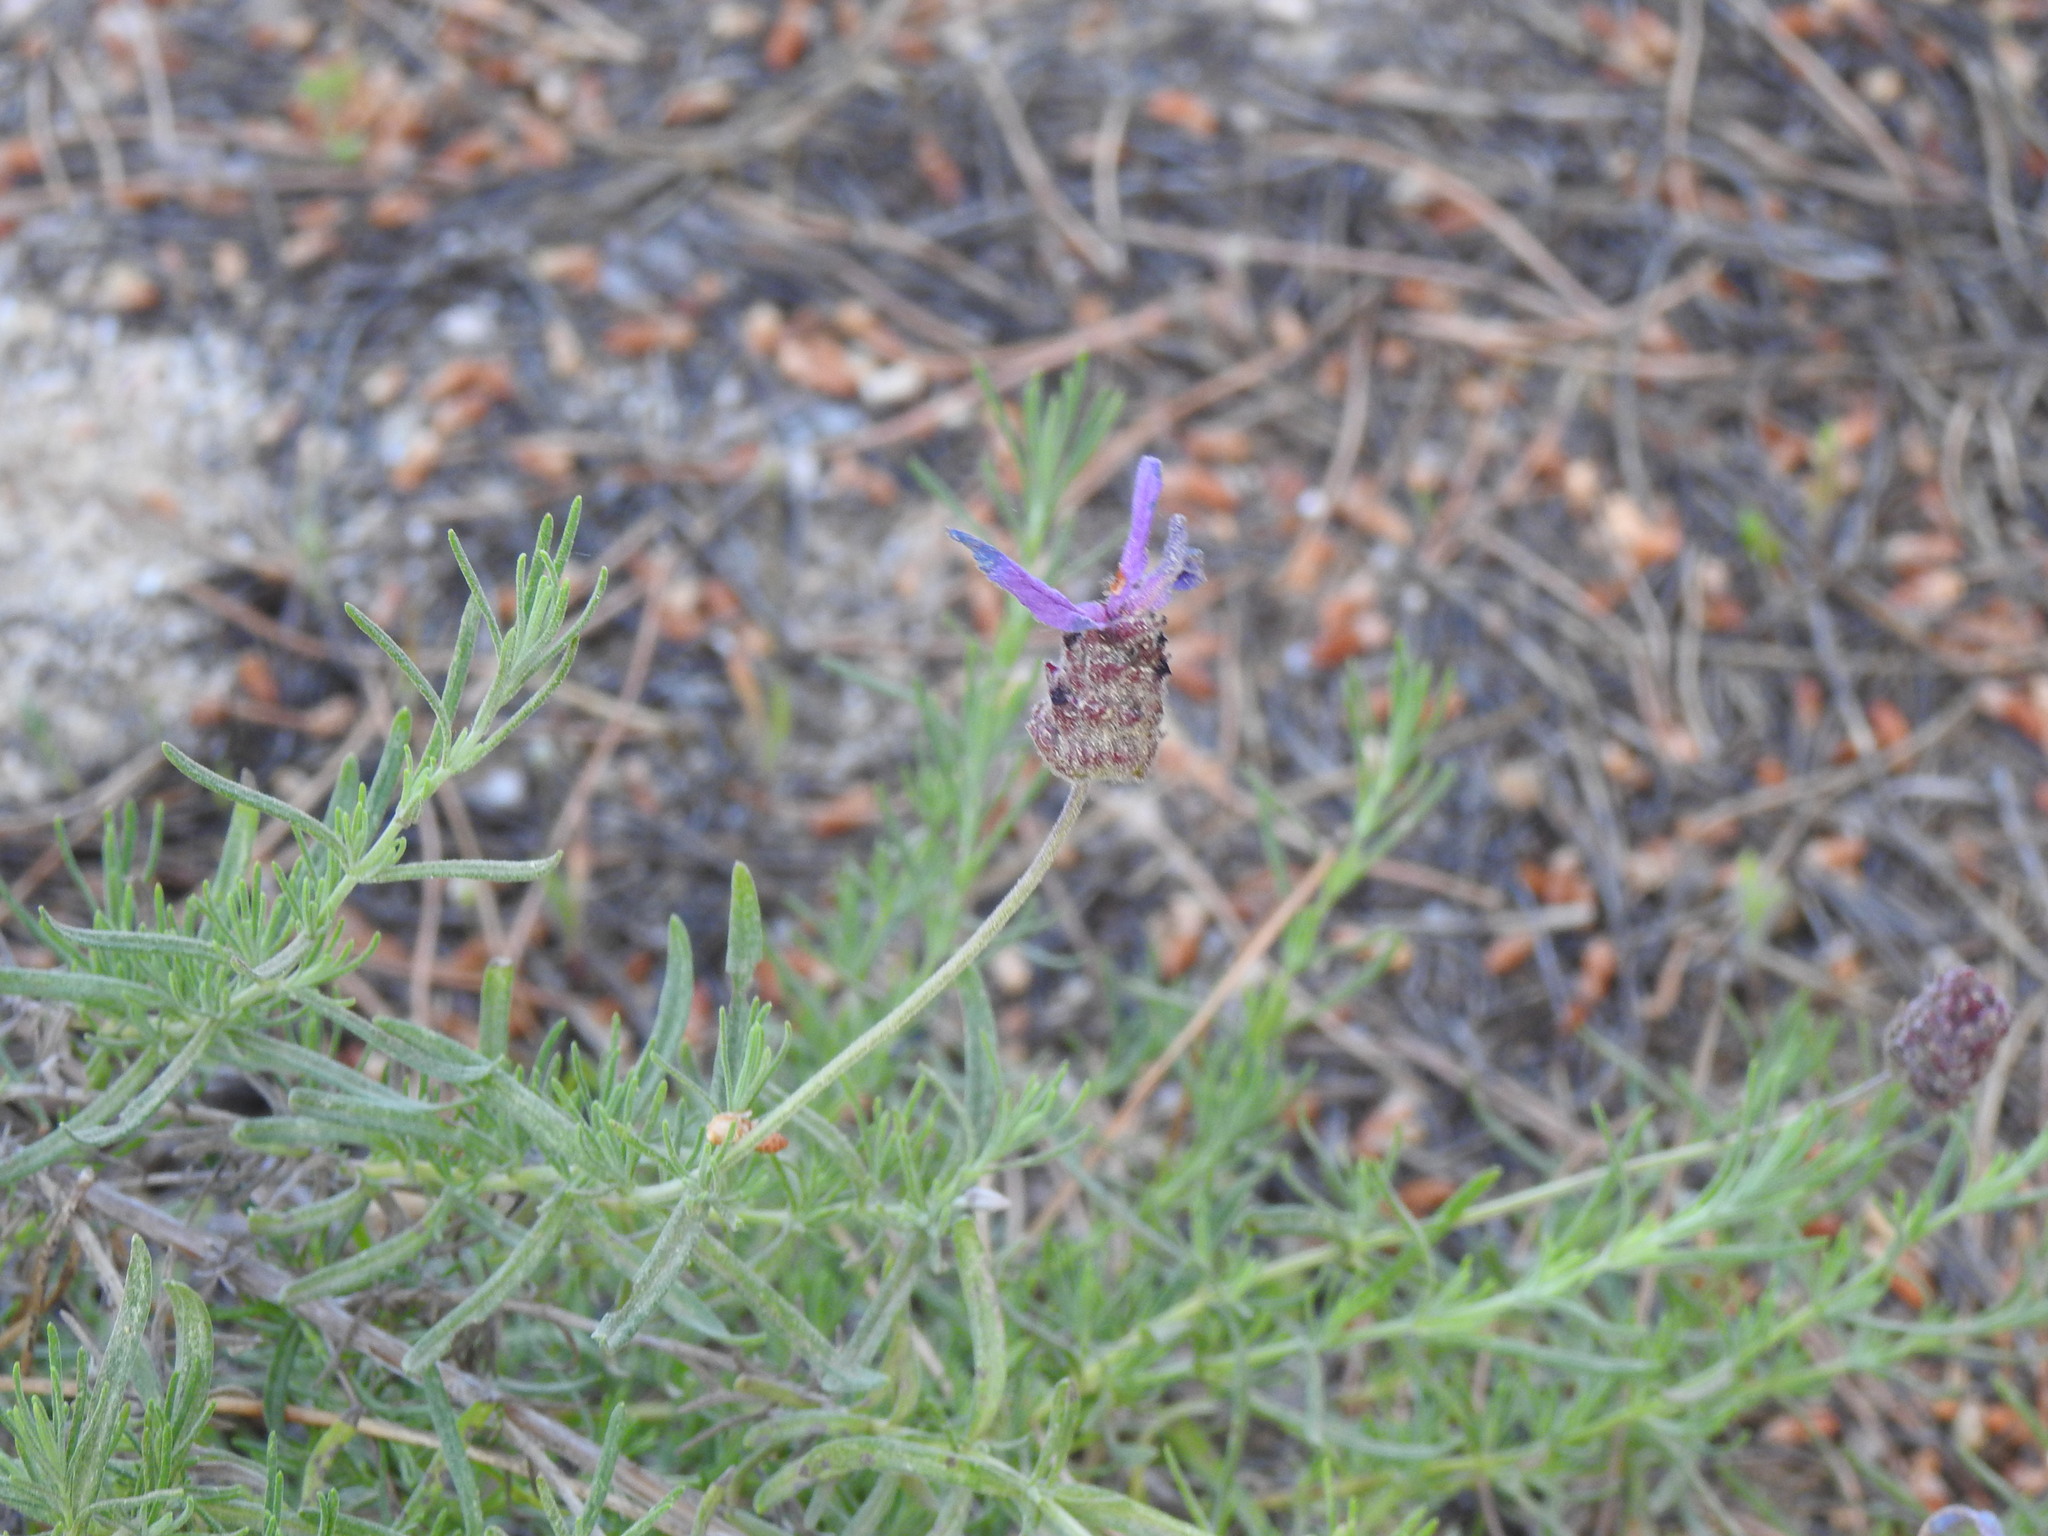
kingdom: Plantae
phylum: Tracheophyta
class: Magnoliopsida
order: Lamiales
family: Lamiaceae
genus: Lavandula
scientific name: Lavandula pedunculata
